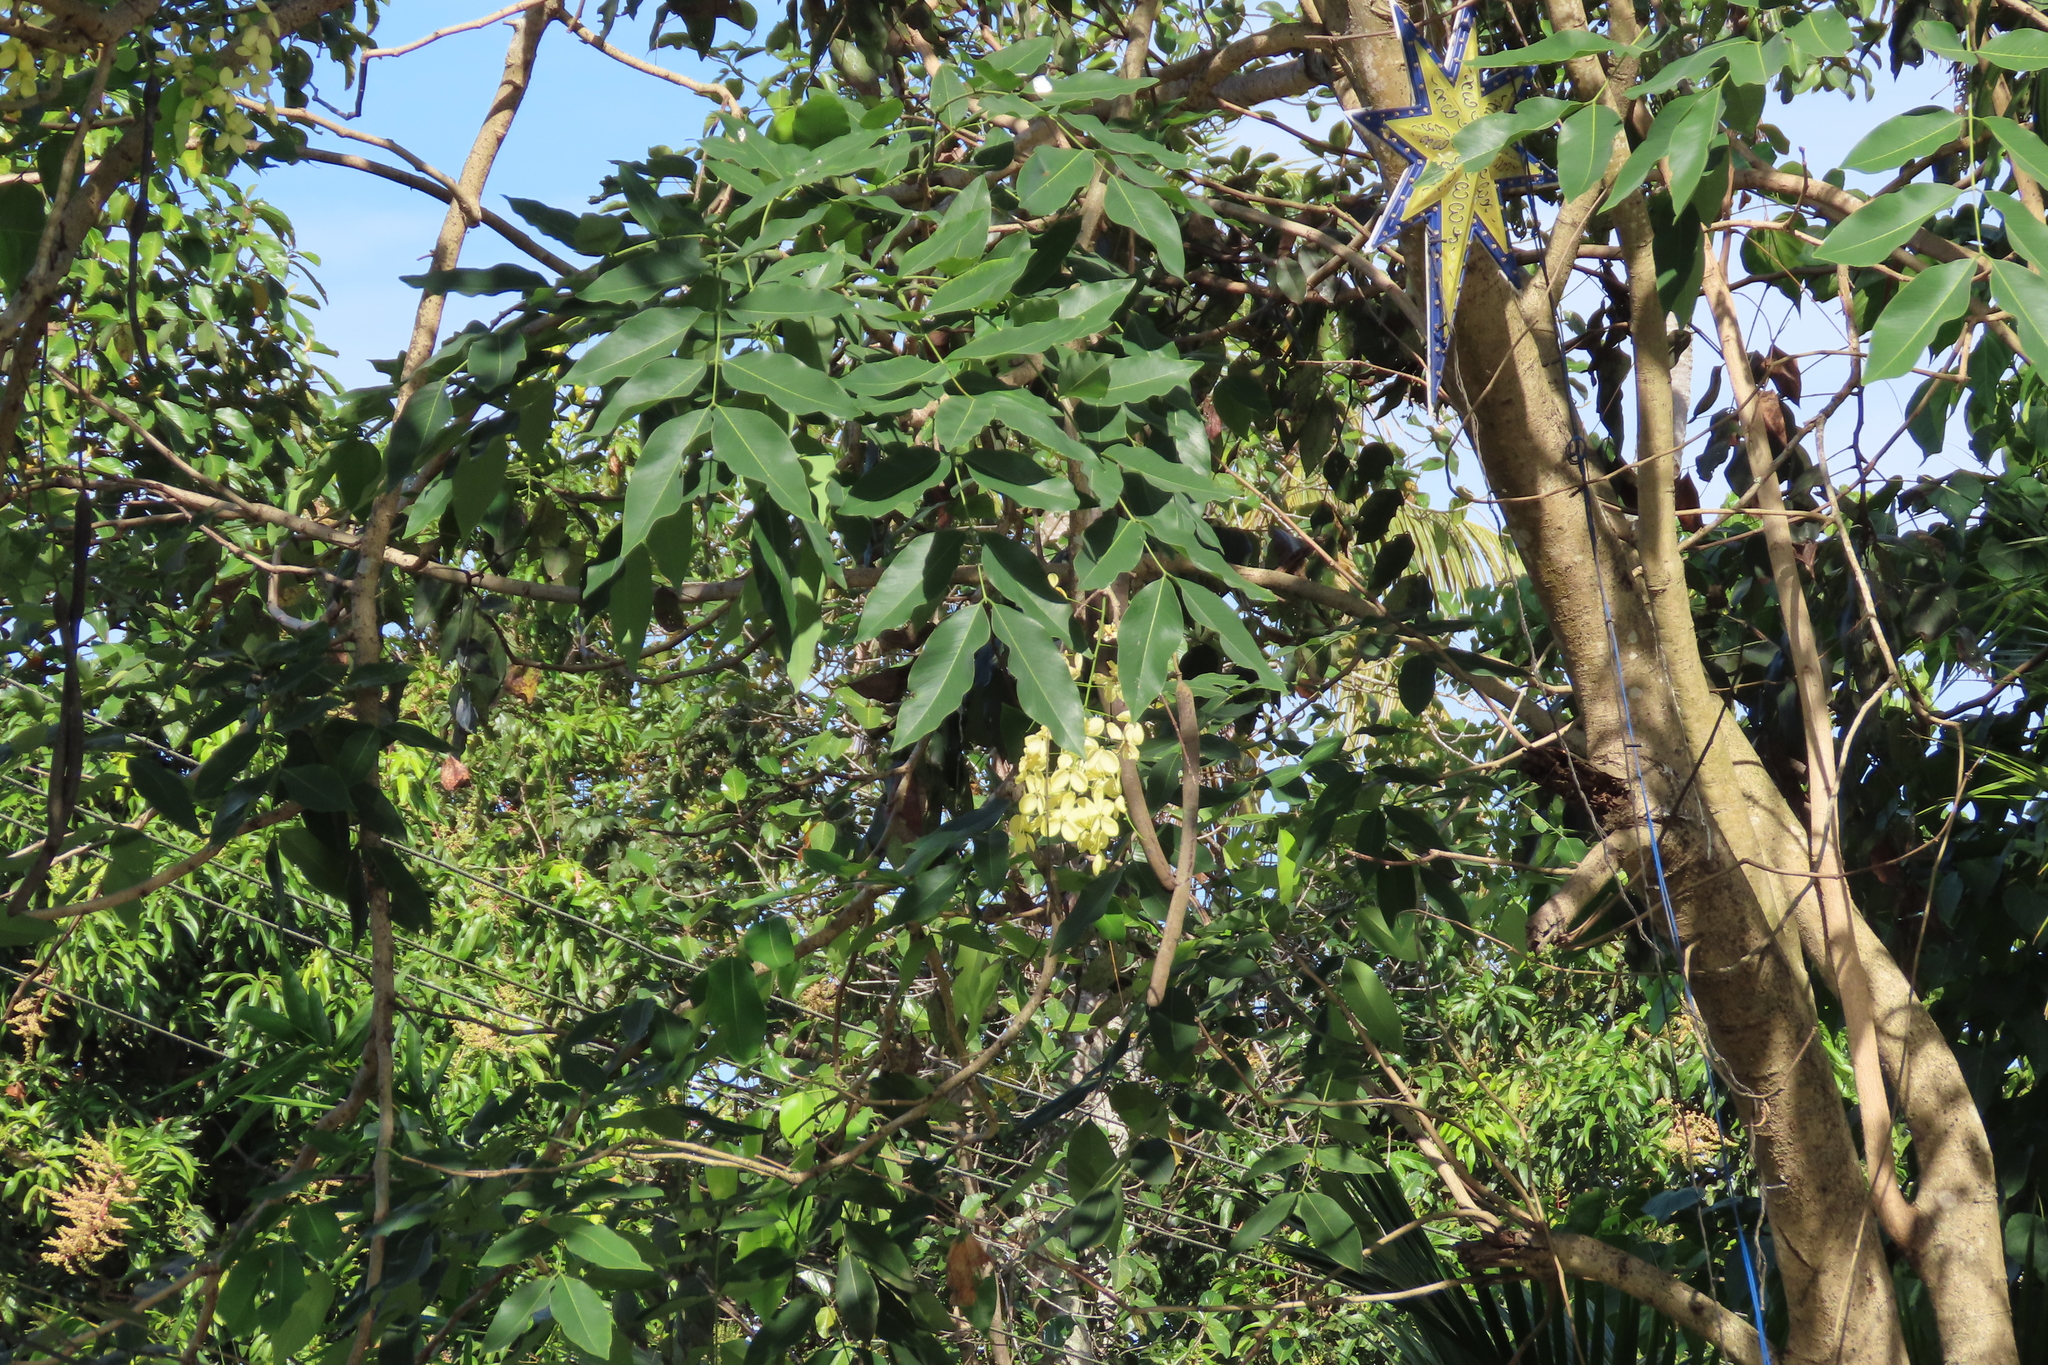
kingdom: Plantae
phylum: Tracheophyta
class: Magnoliopsida
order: Fabales
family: Fabaceae
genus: Cassia
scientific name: Cassia fistula
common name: Golden shower
